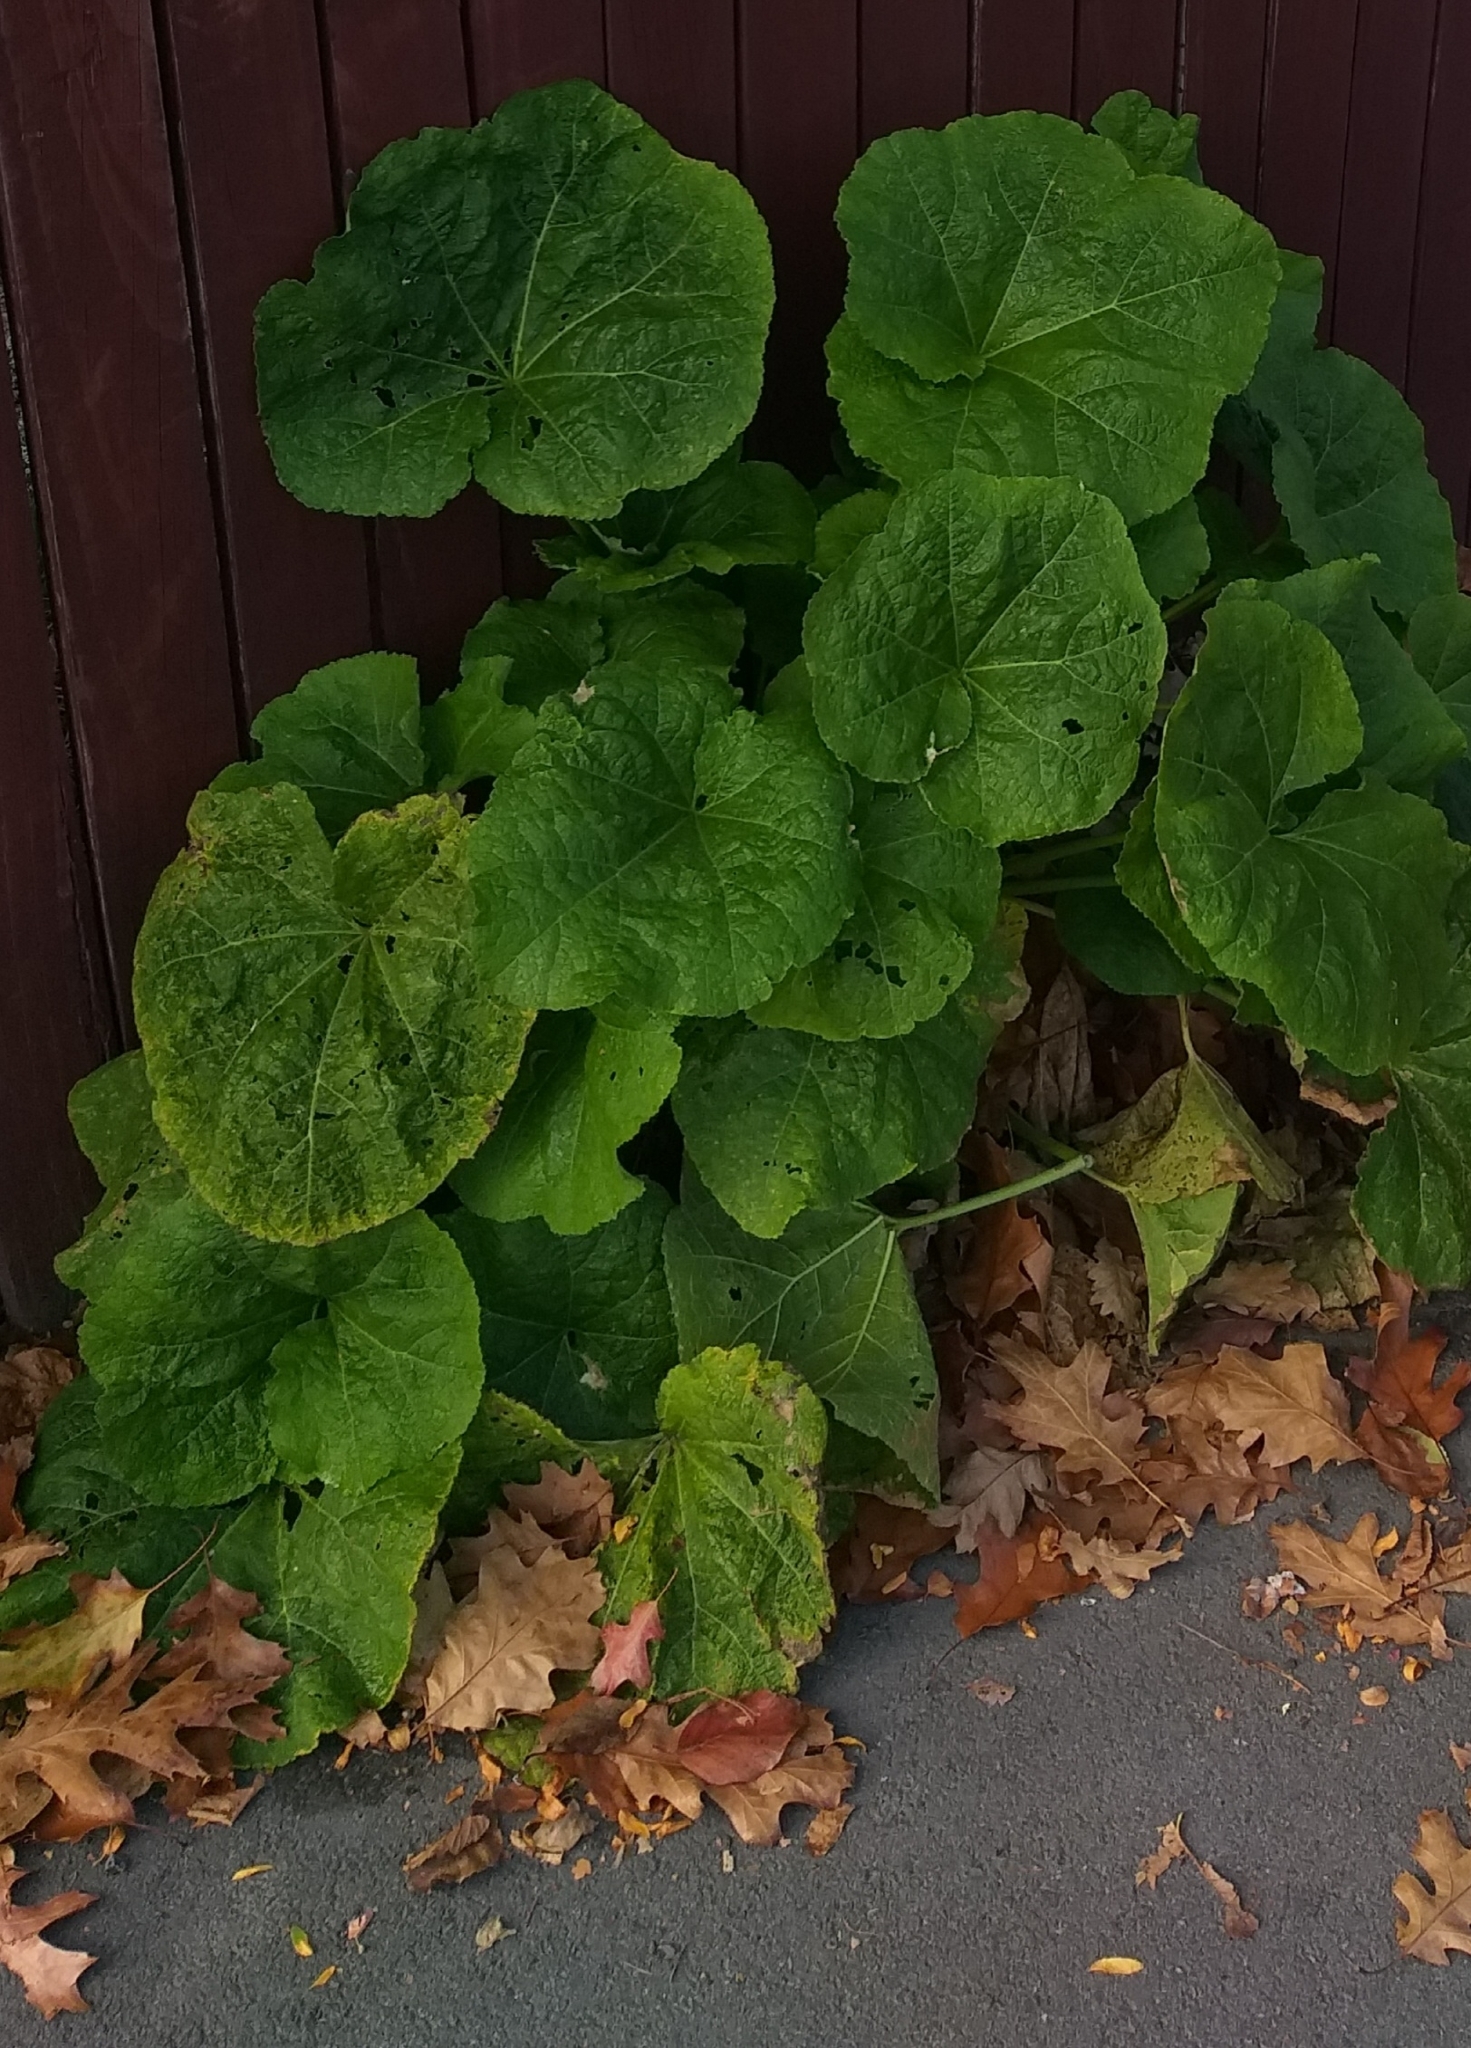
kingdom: Plantae
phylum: Tracheophyta
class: Magnoliopsida
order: Malvales
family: Malvaceae
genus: Alcea
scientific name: Alcea rosea
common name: Hollyhock
